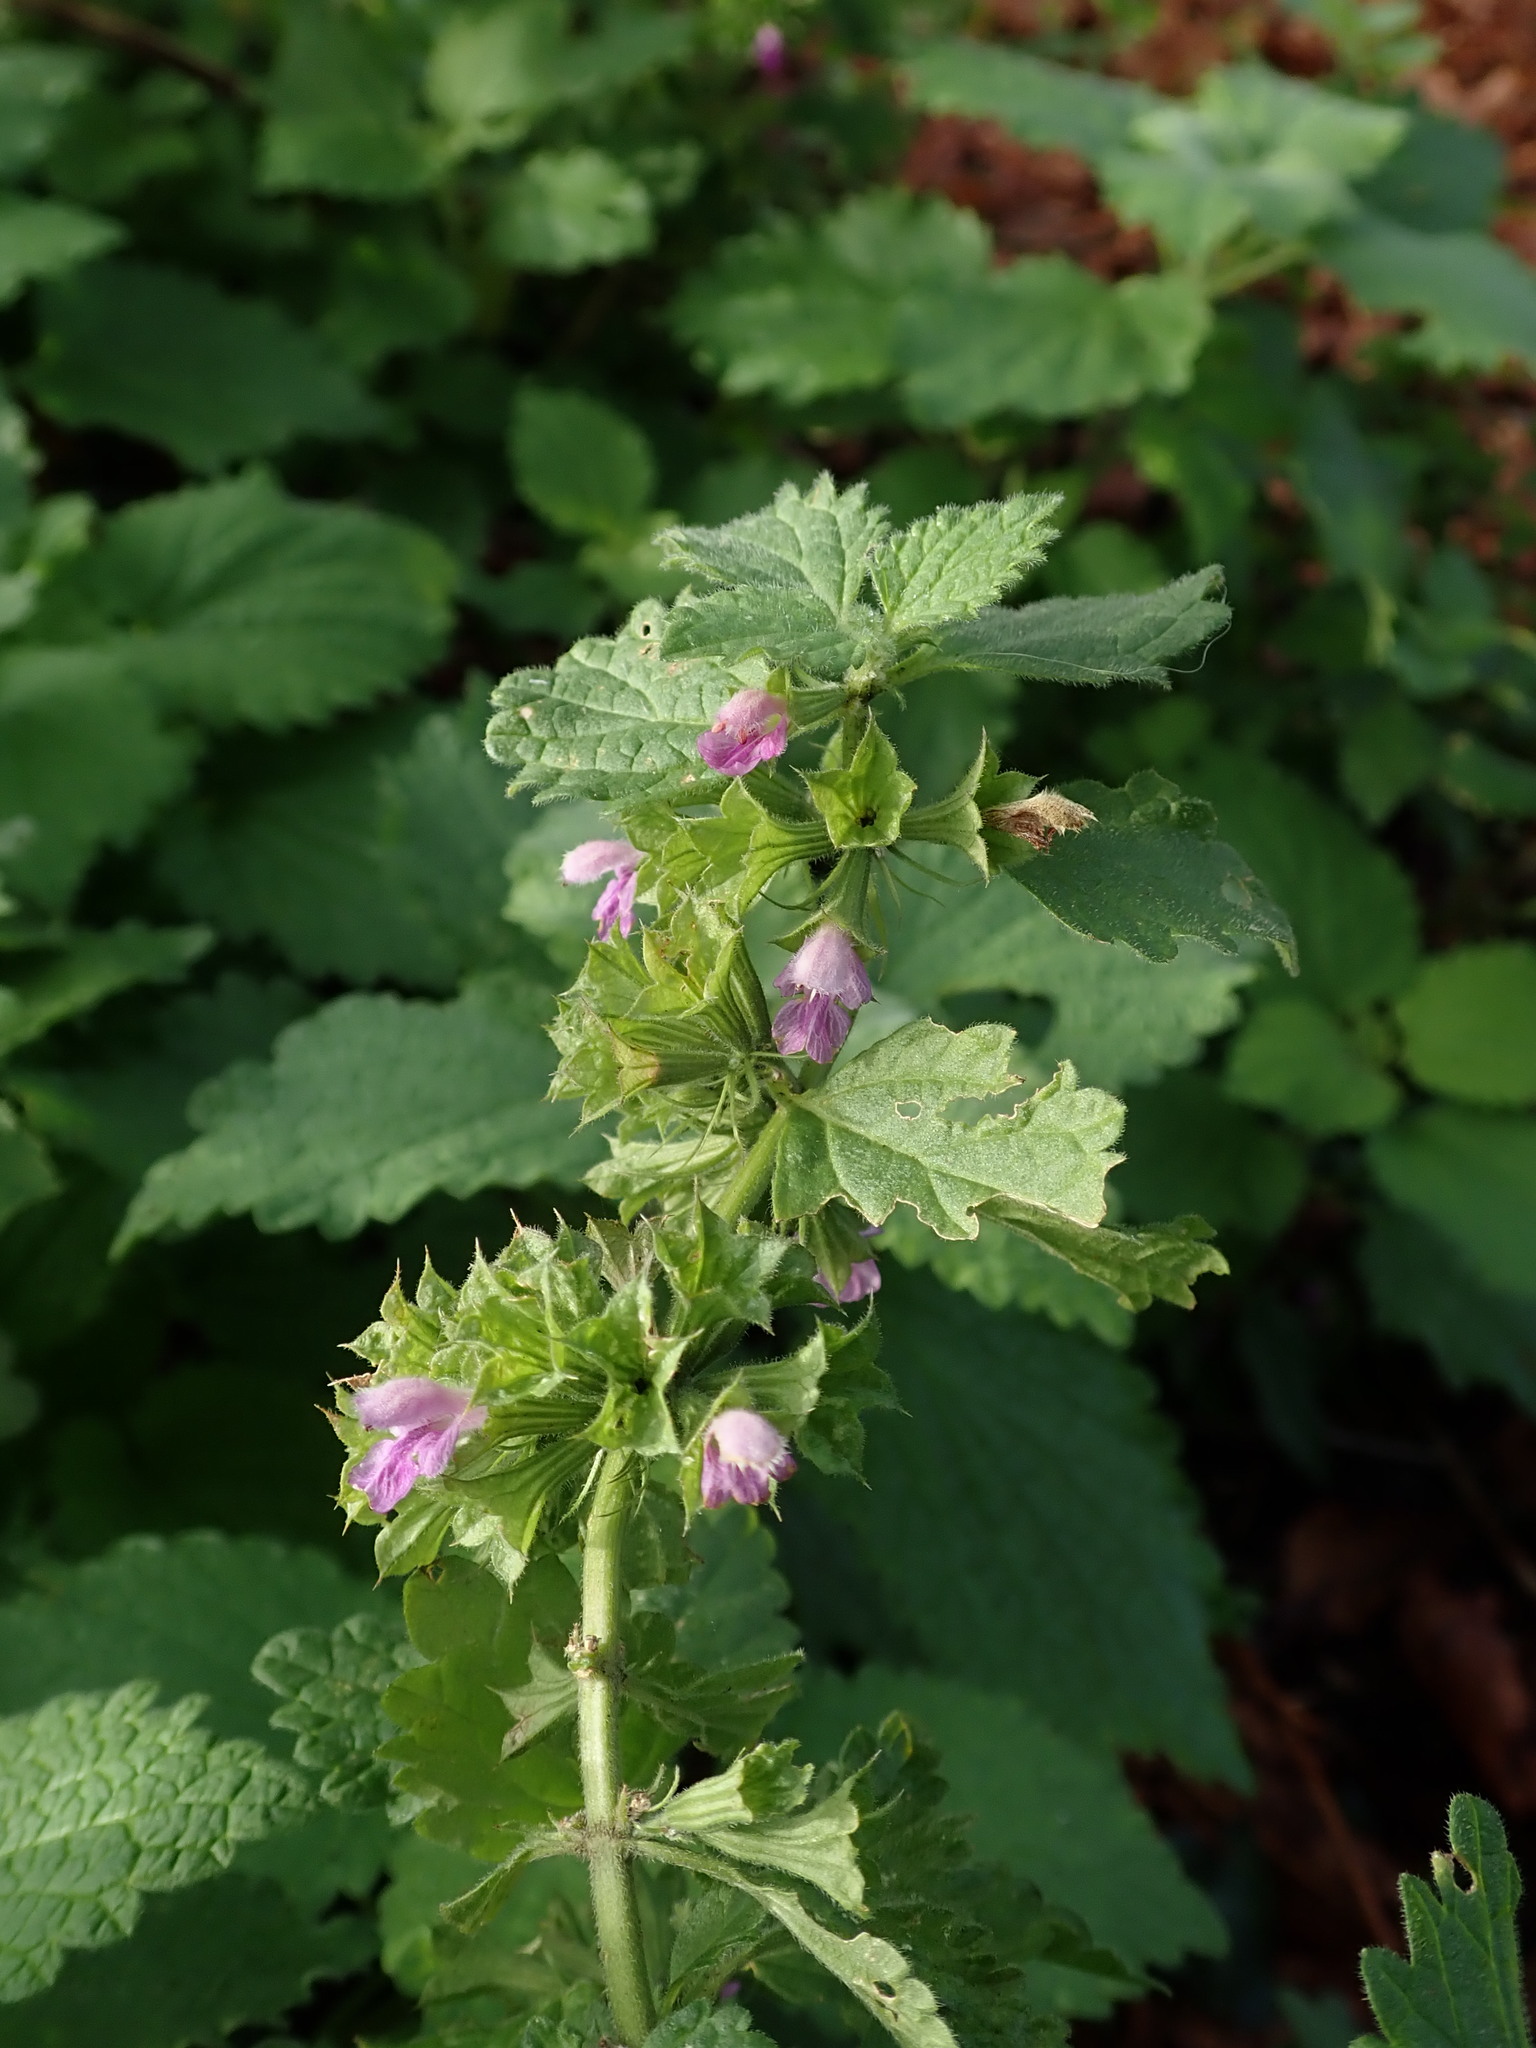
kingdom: Plantae
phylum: Tracheophyta
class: Magnoliopsida
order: Lamiales
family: Lamiaceae
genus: Ballota
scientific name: Ballota nigra
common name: Black horehound
